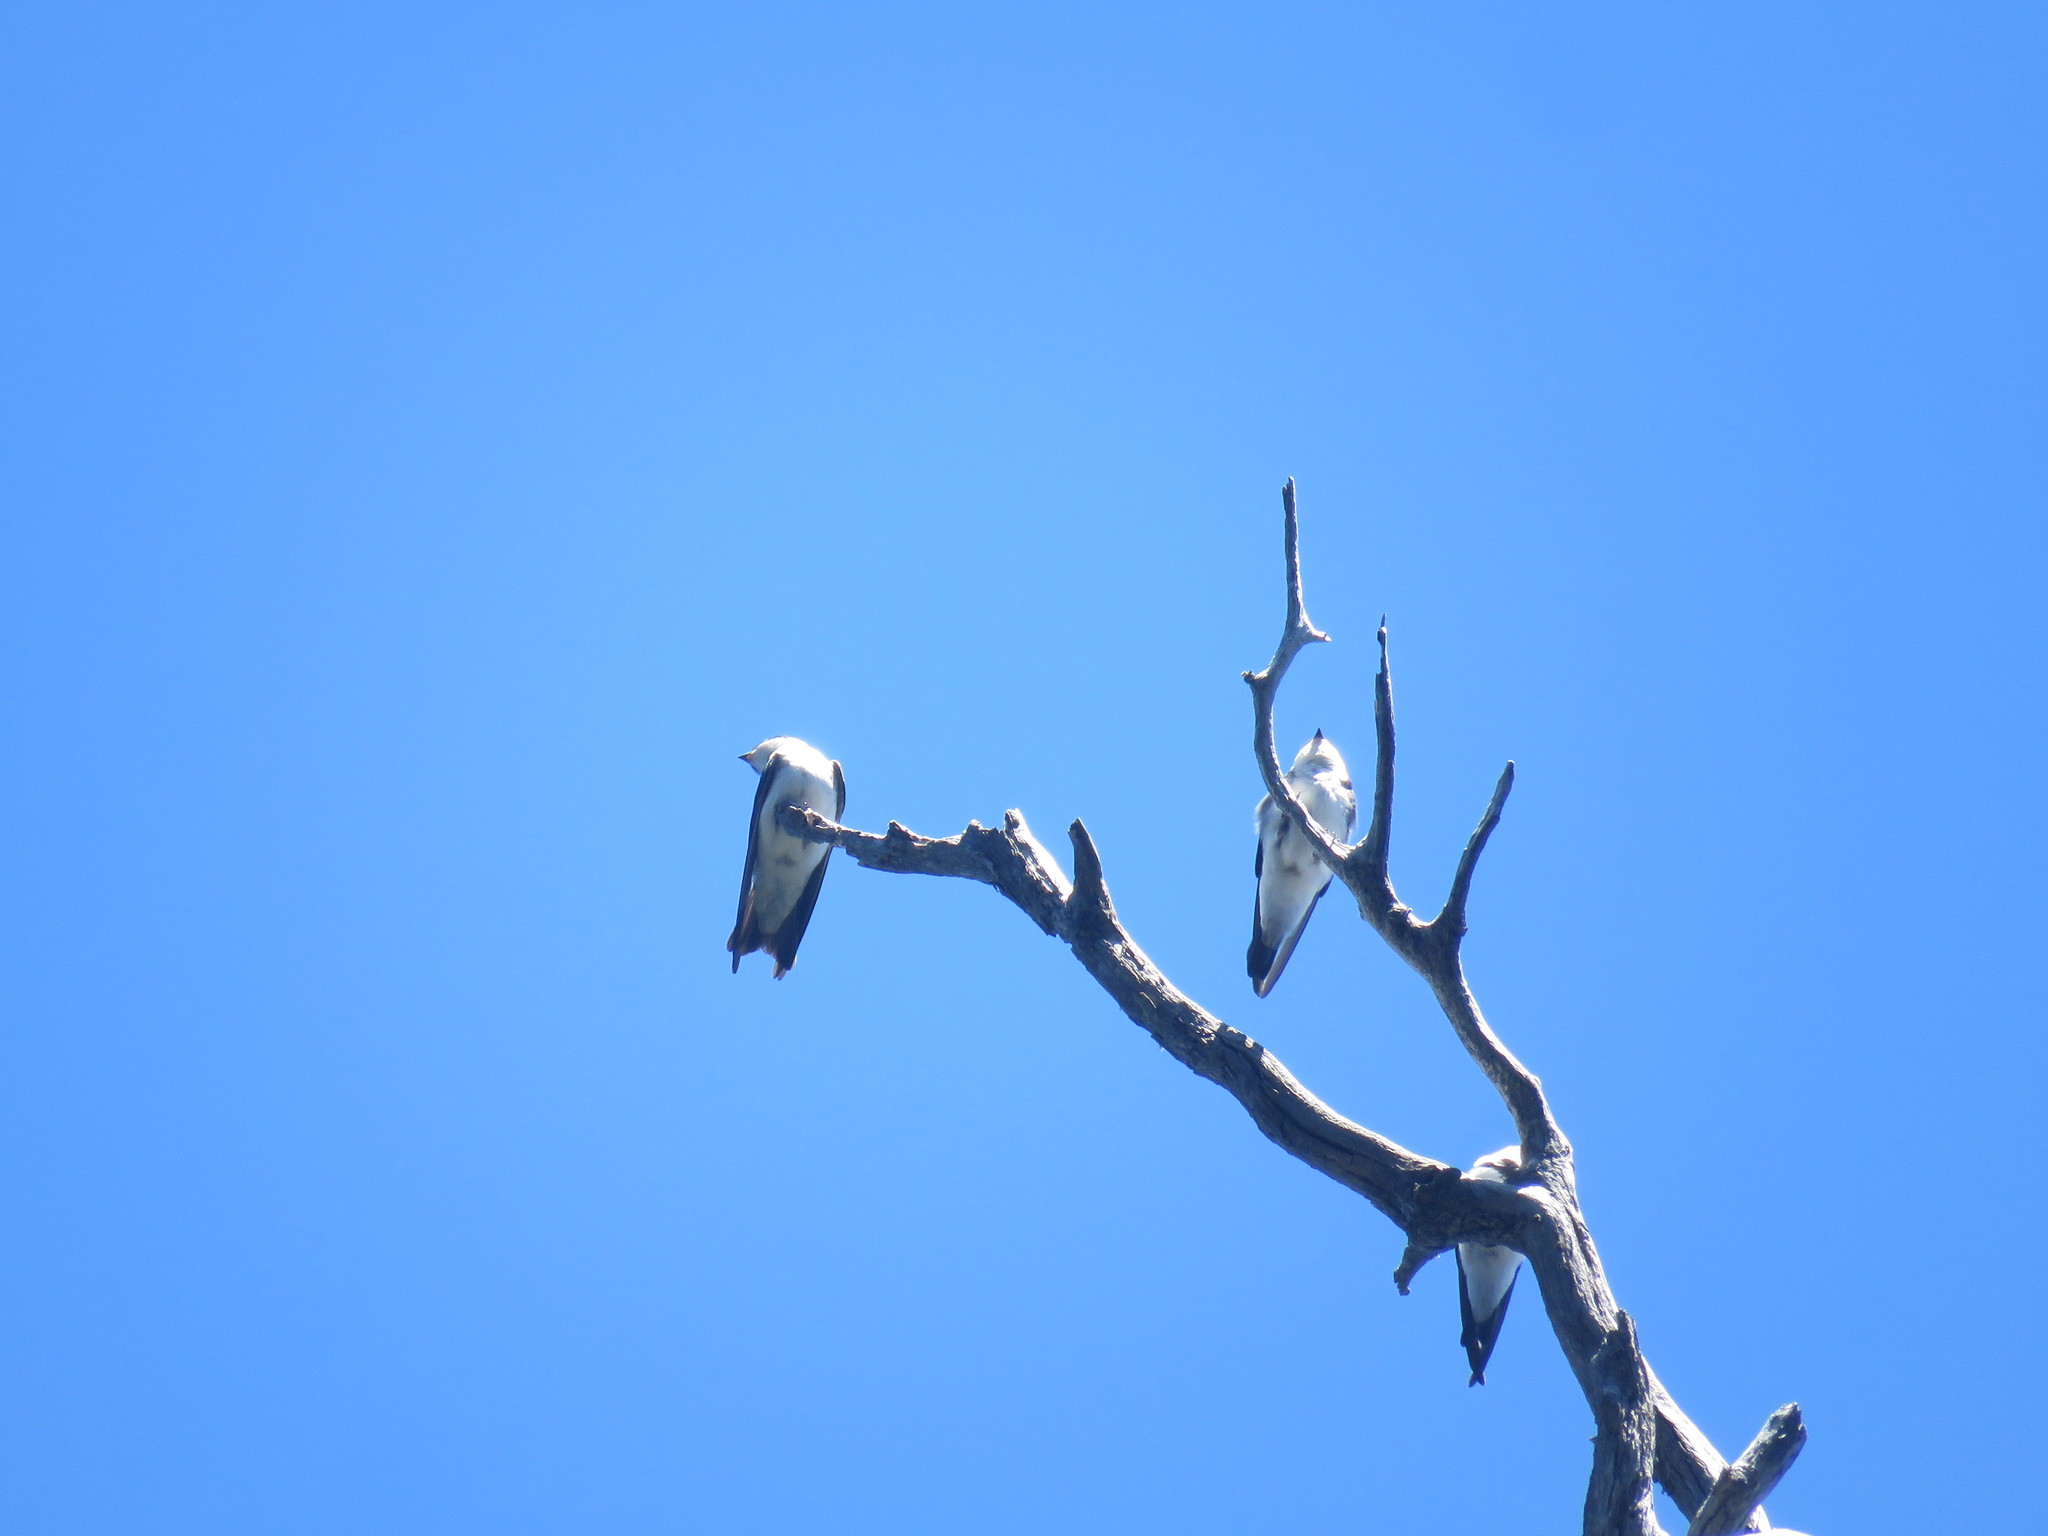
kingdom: Animalia
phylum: Chordata
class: Aves
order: Passeriformes
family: Hirundinidae
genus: Tachycineta
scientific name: Tachycineta leucopyga
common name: Chilean swallow
